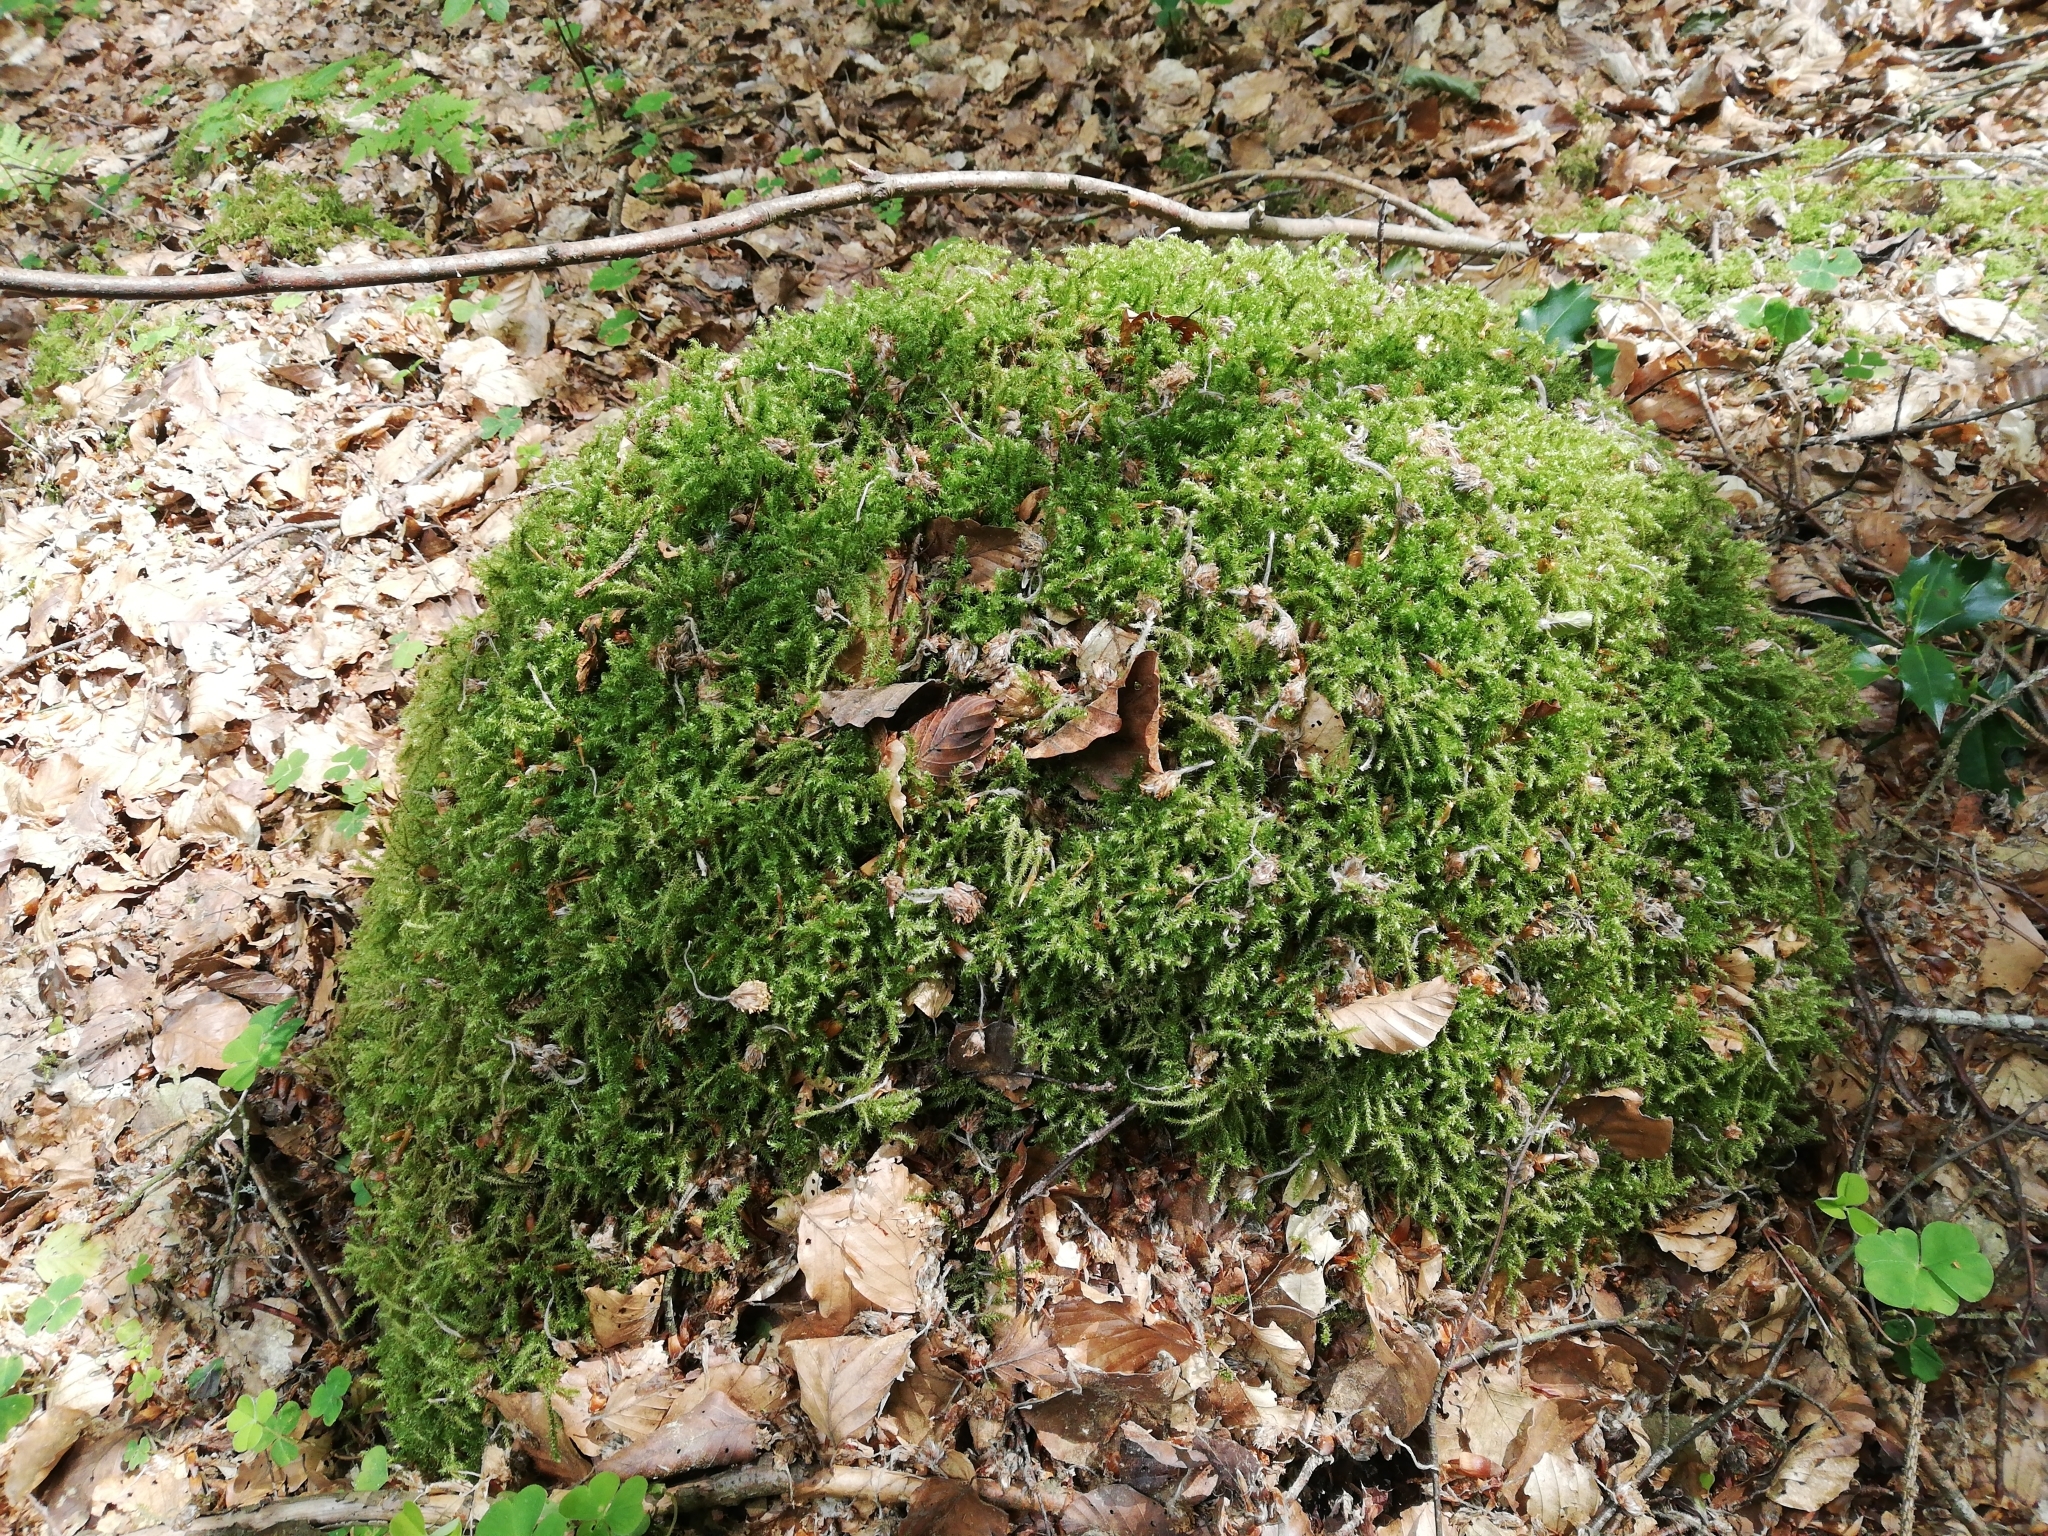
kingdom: Plantae
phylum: Bryophyta
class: Bryopsida
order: Hypnales
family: Hylocomiaceae
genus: Rhytidiadelphus
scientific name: Rhytidiadelphus loreus
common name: Lanky moss
